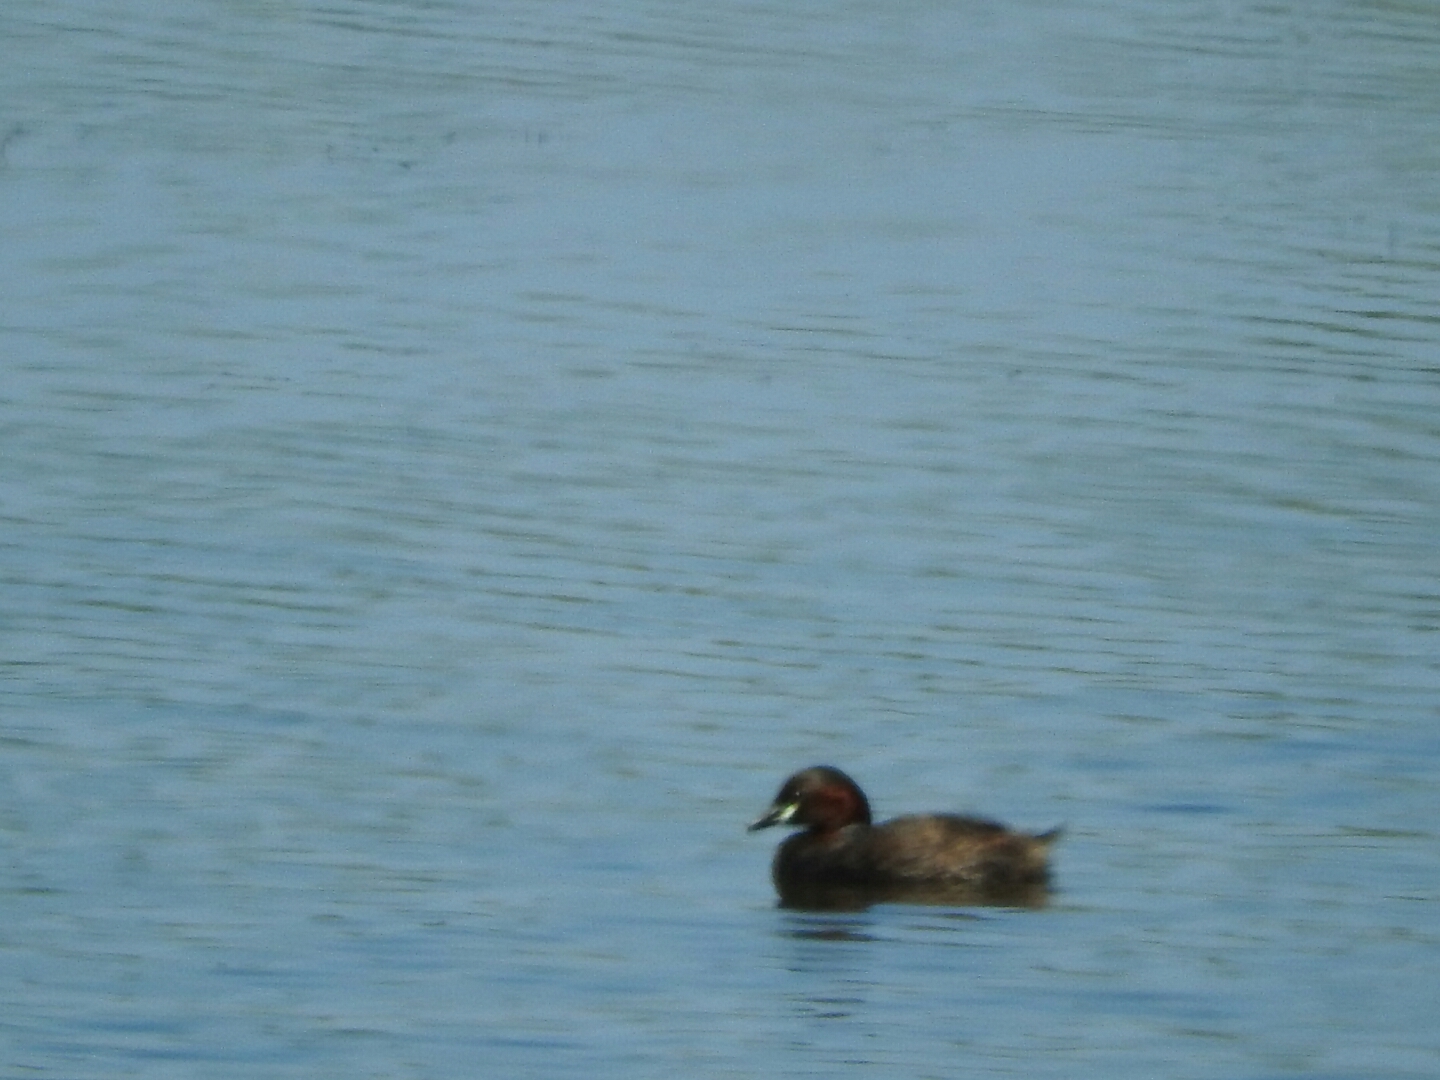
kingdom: Animalia
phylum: Chordata
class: Aves
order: Podicipediformes
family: Podicipedidae
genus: Tachybaptus
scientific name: Tachybaptus ruficollis
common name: Little grebe
